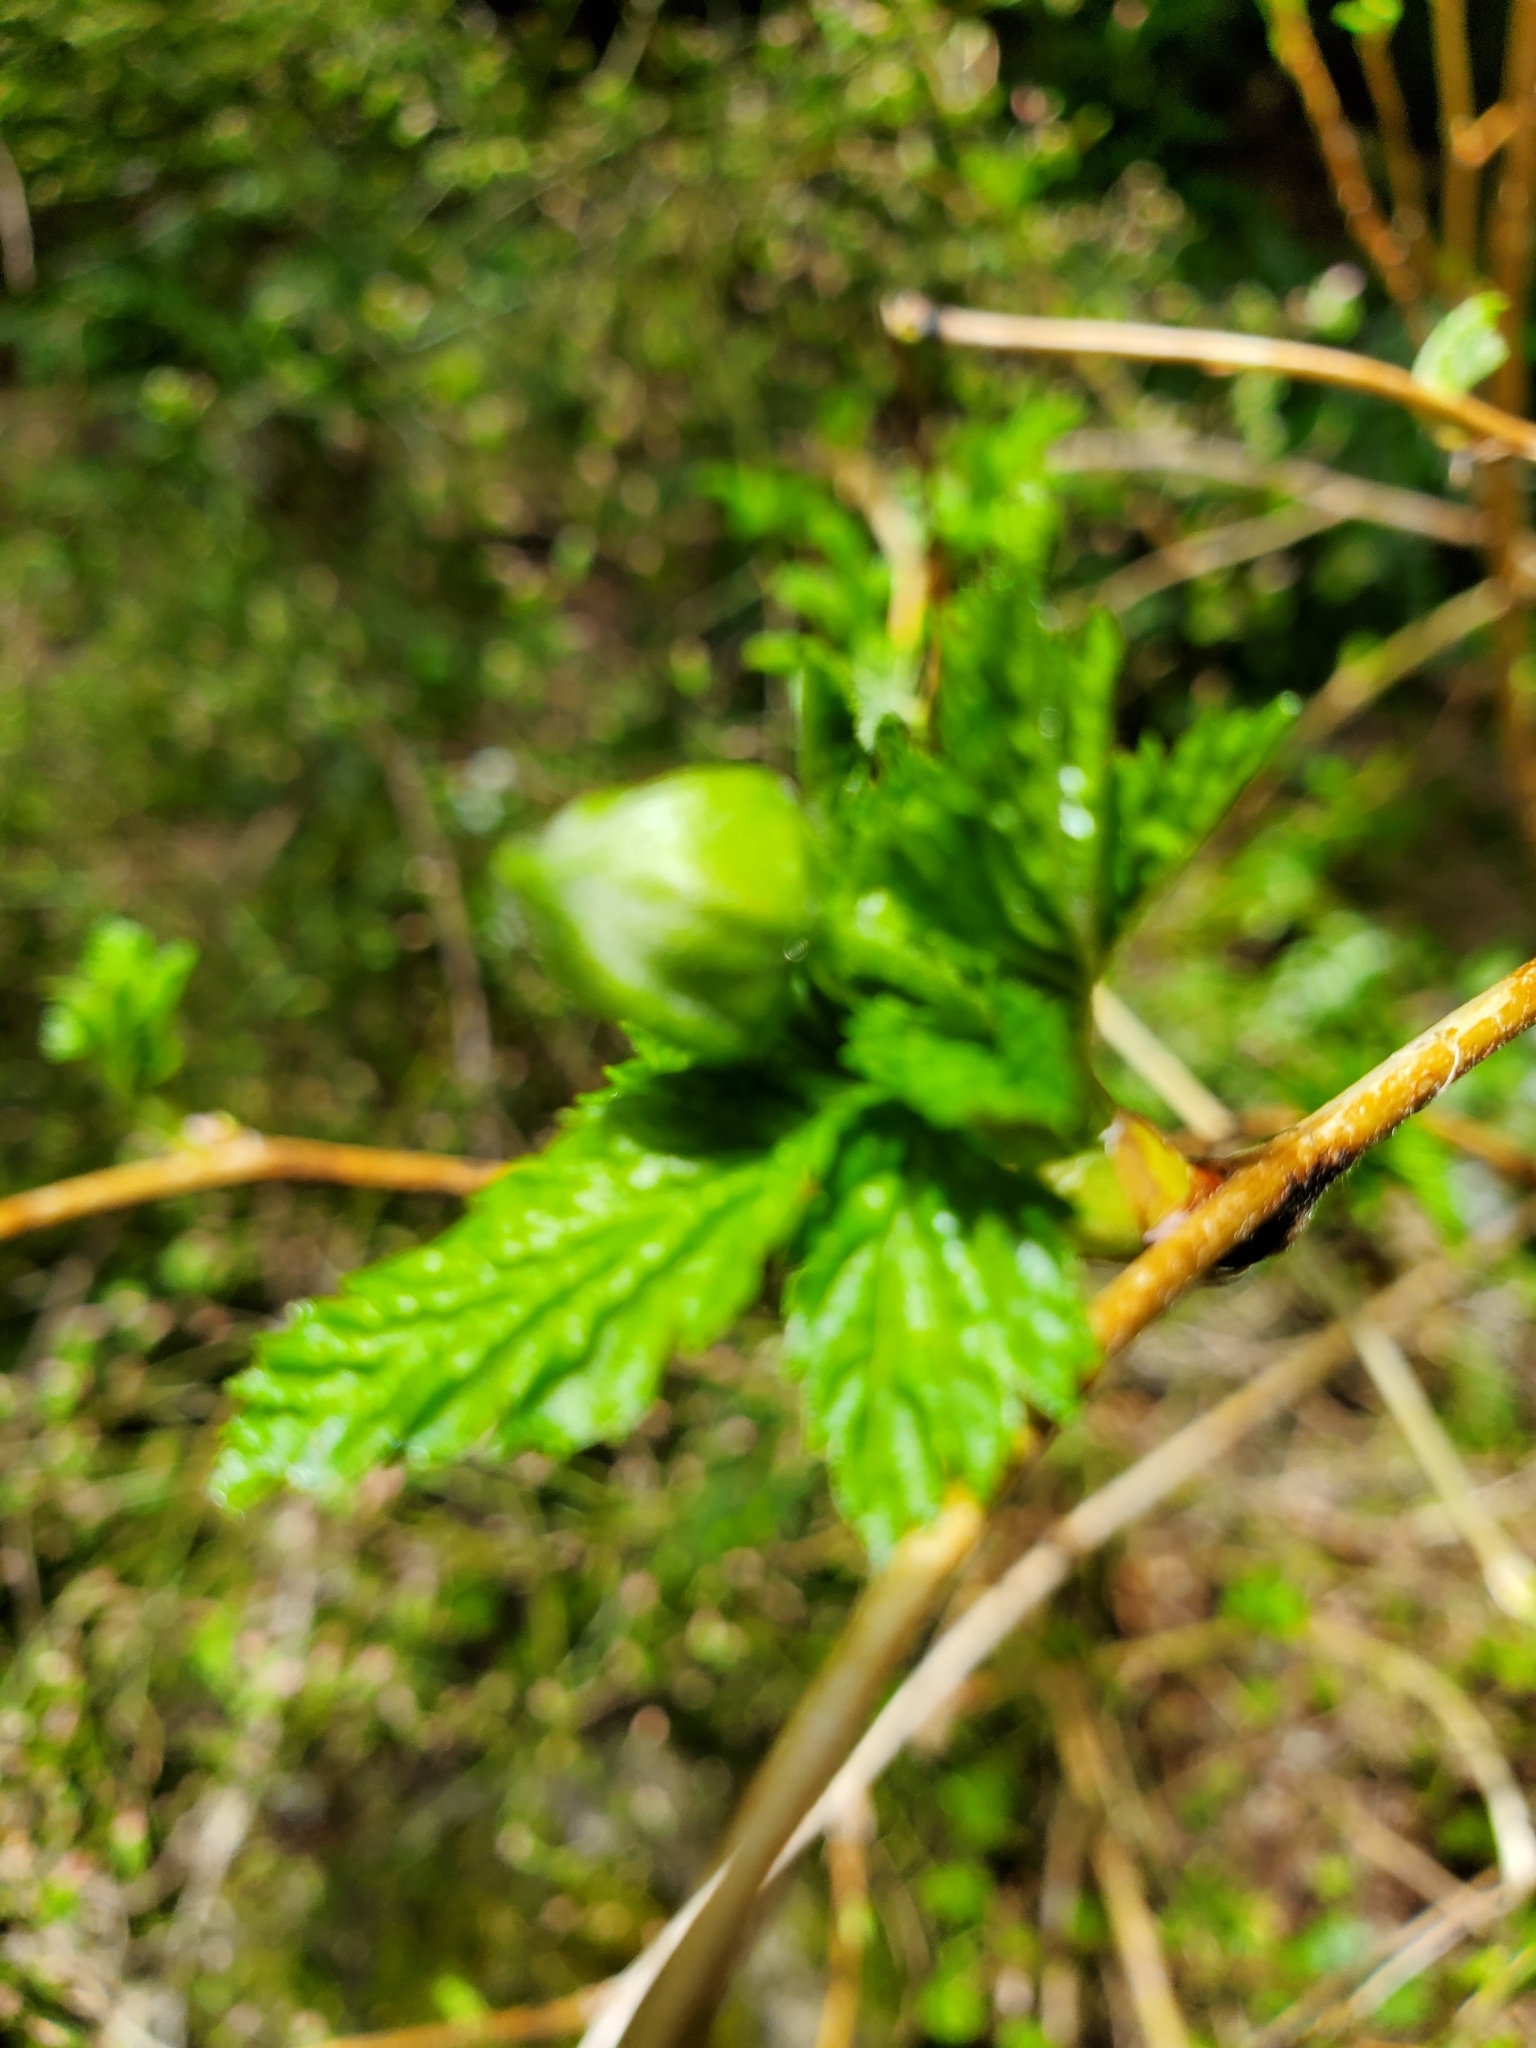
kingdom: Plantae
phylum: Tracheophyta
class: Magnoliopsida
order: Rosales
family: Rosaceae
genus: Rubus
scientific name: Rubus spectabilis
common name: Salmonberry
